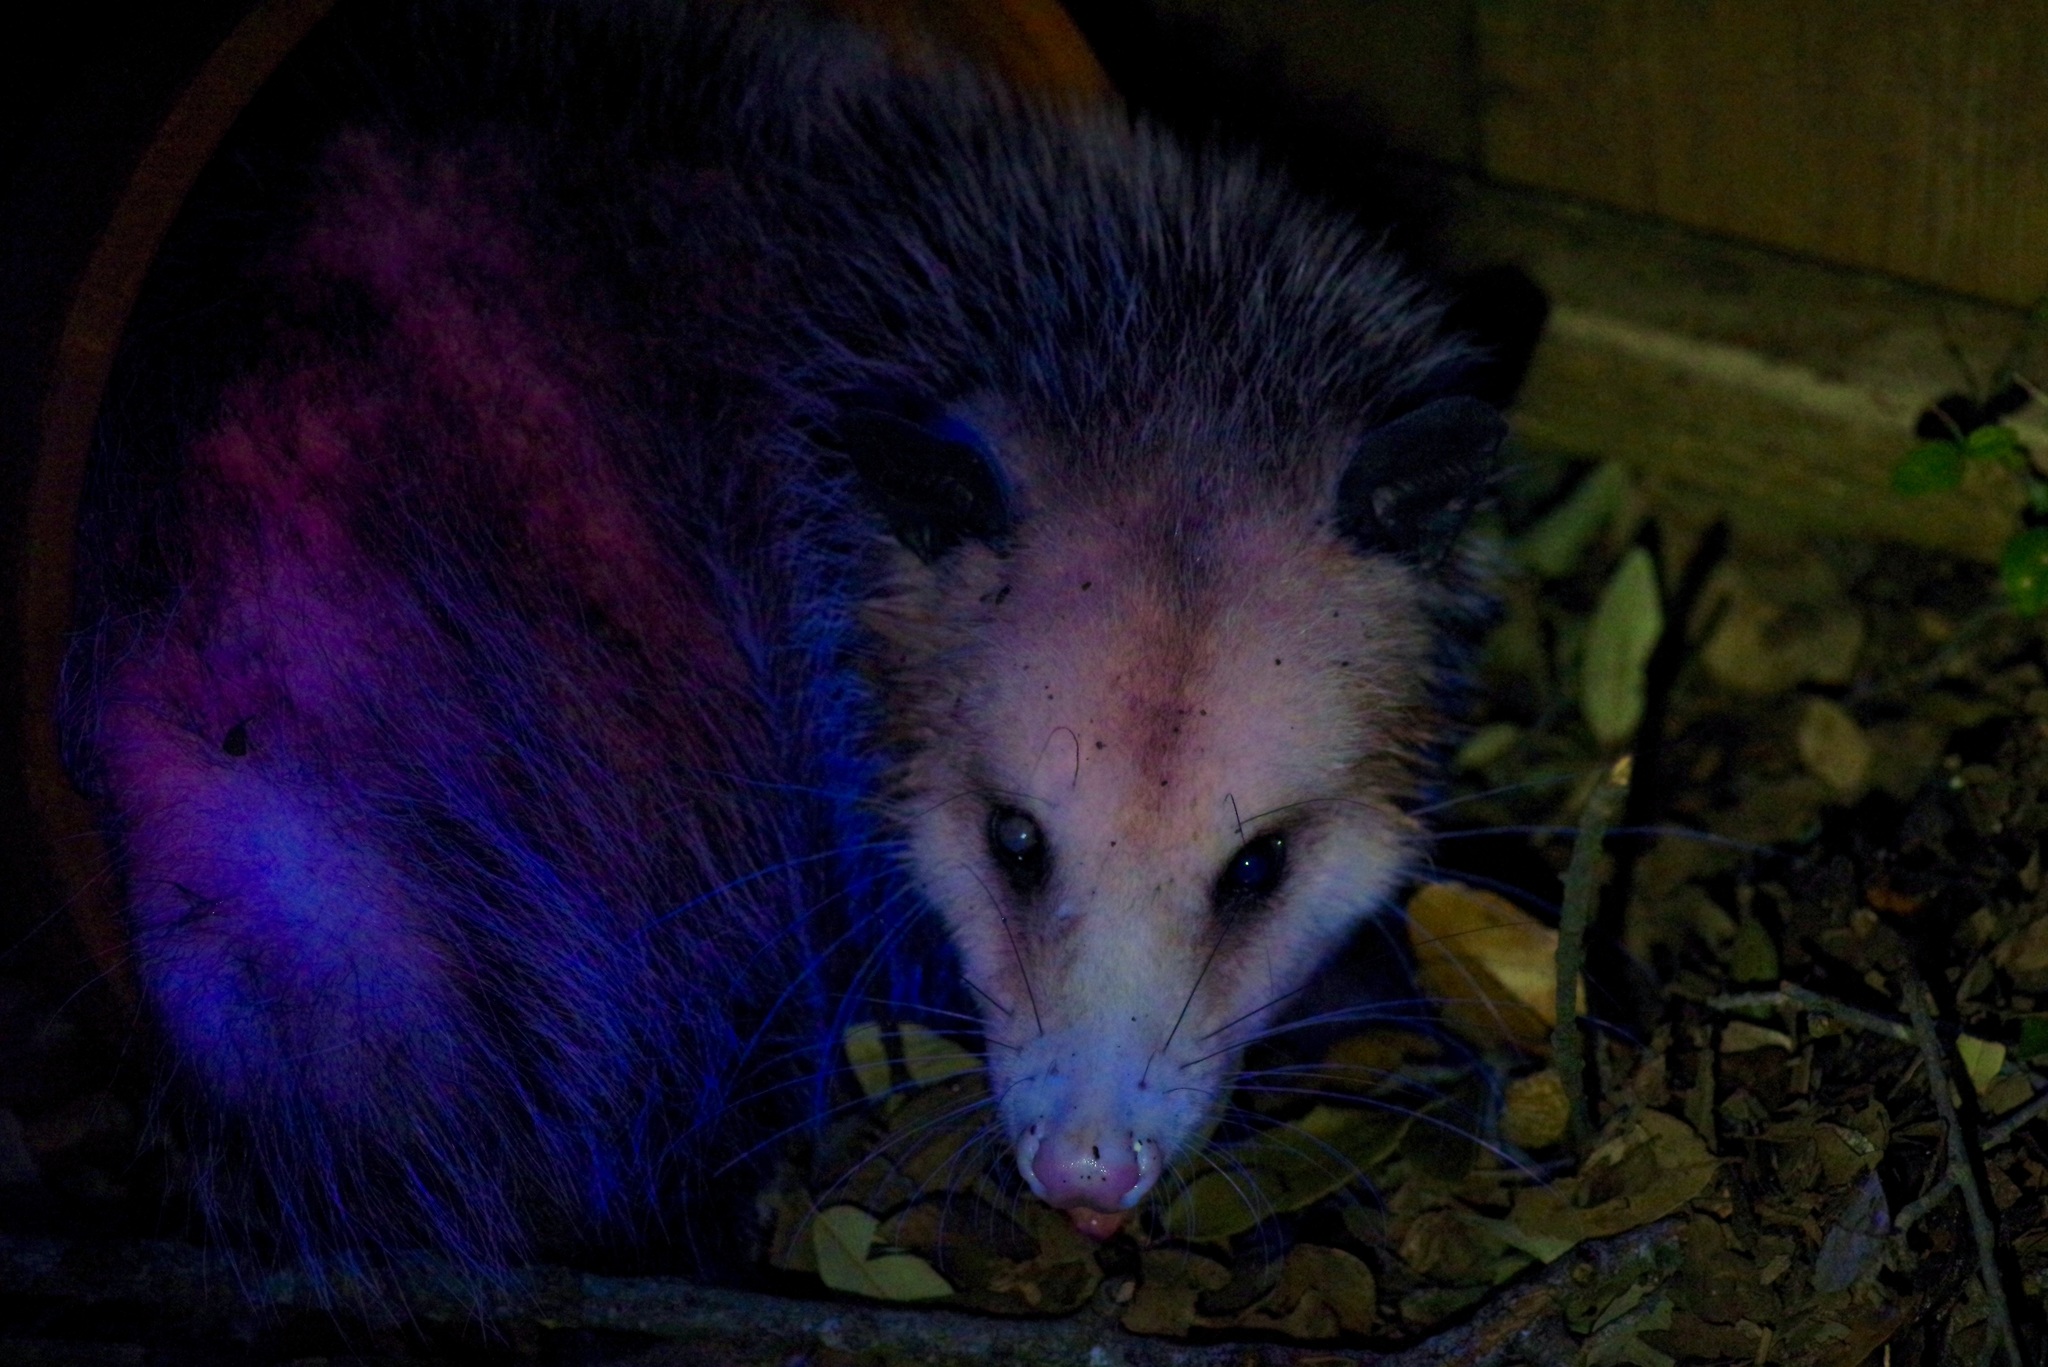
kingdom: Animalia
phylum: Chordata
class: Mammalia
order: Didelphimorphia
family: Didelphidae
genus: Didelphis
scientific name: Didelphis virginiana
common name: Virginia opossum
